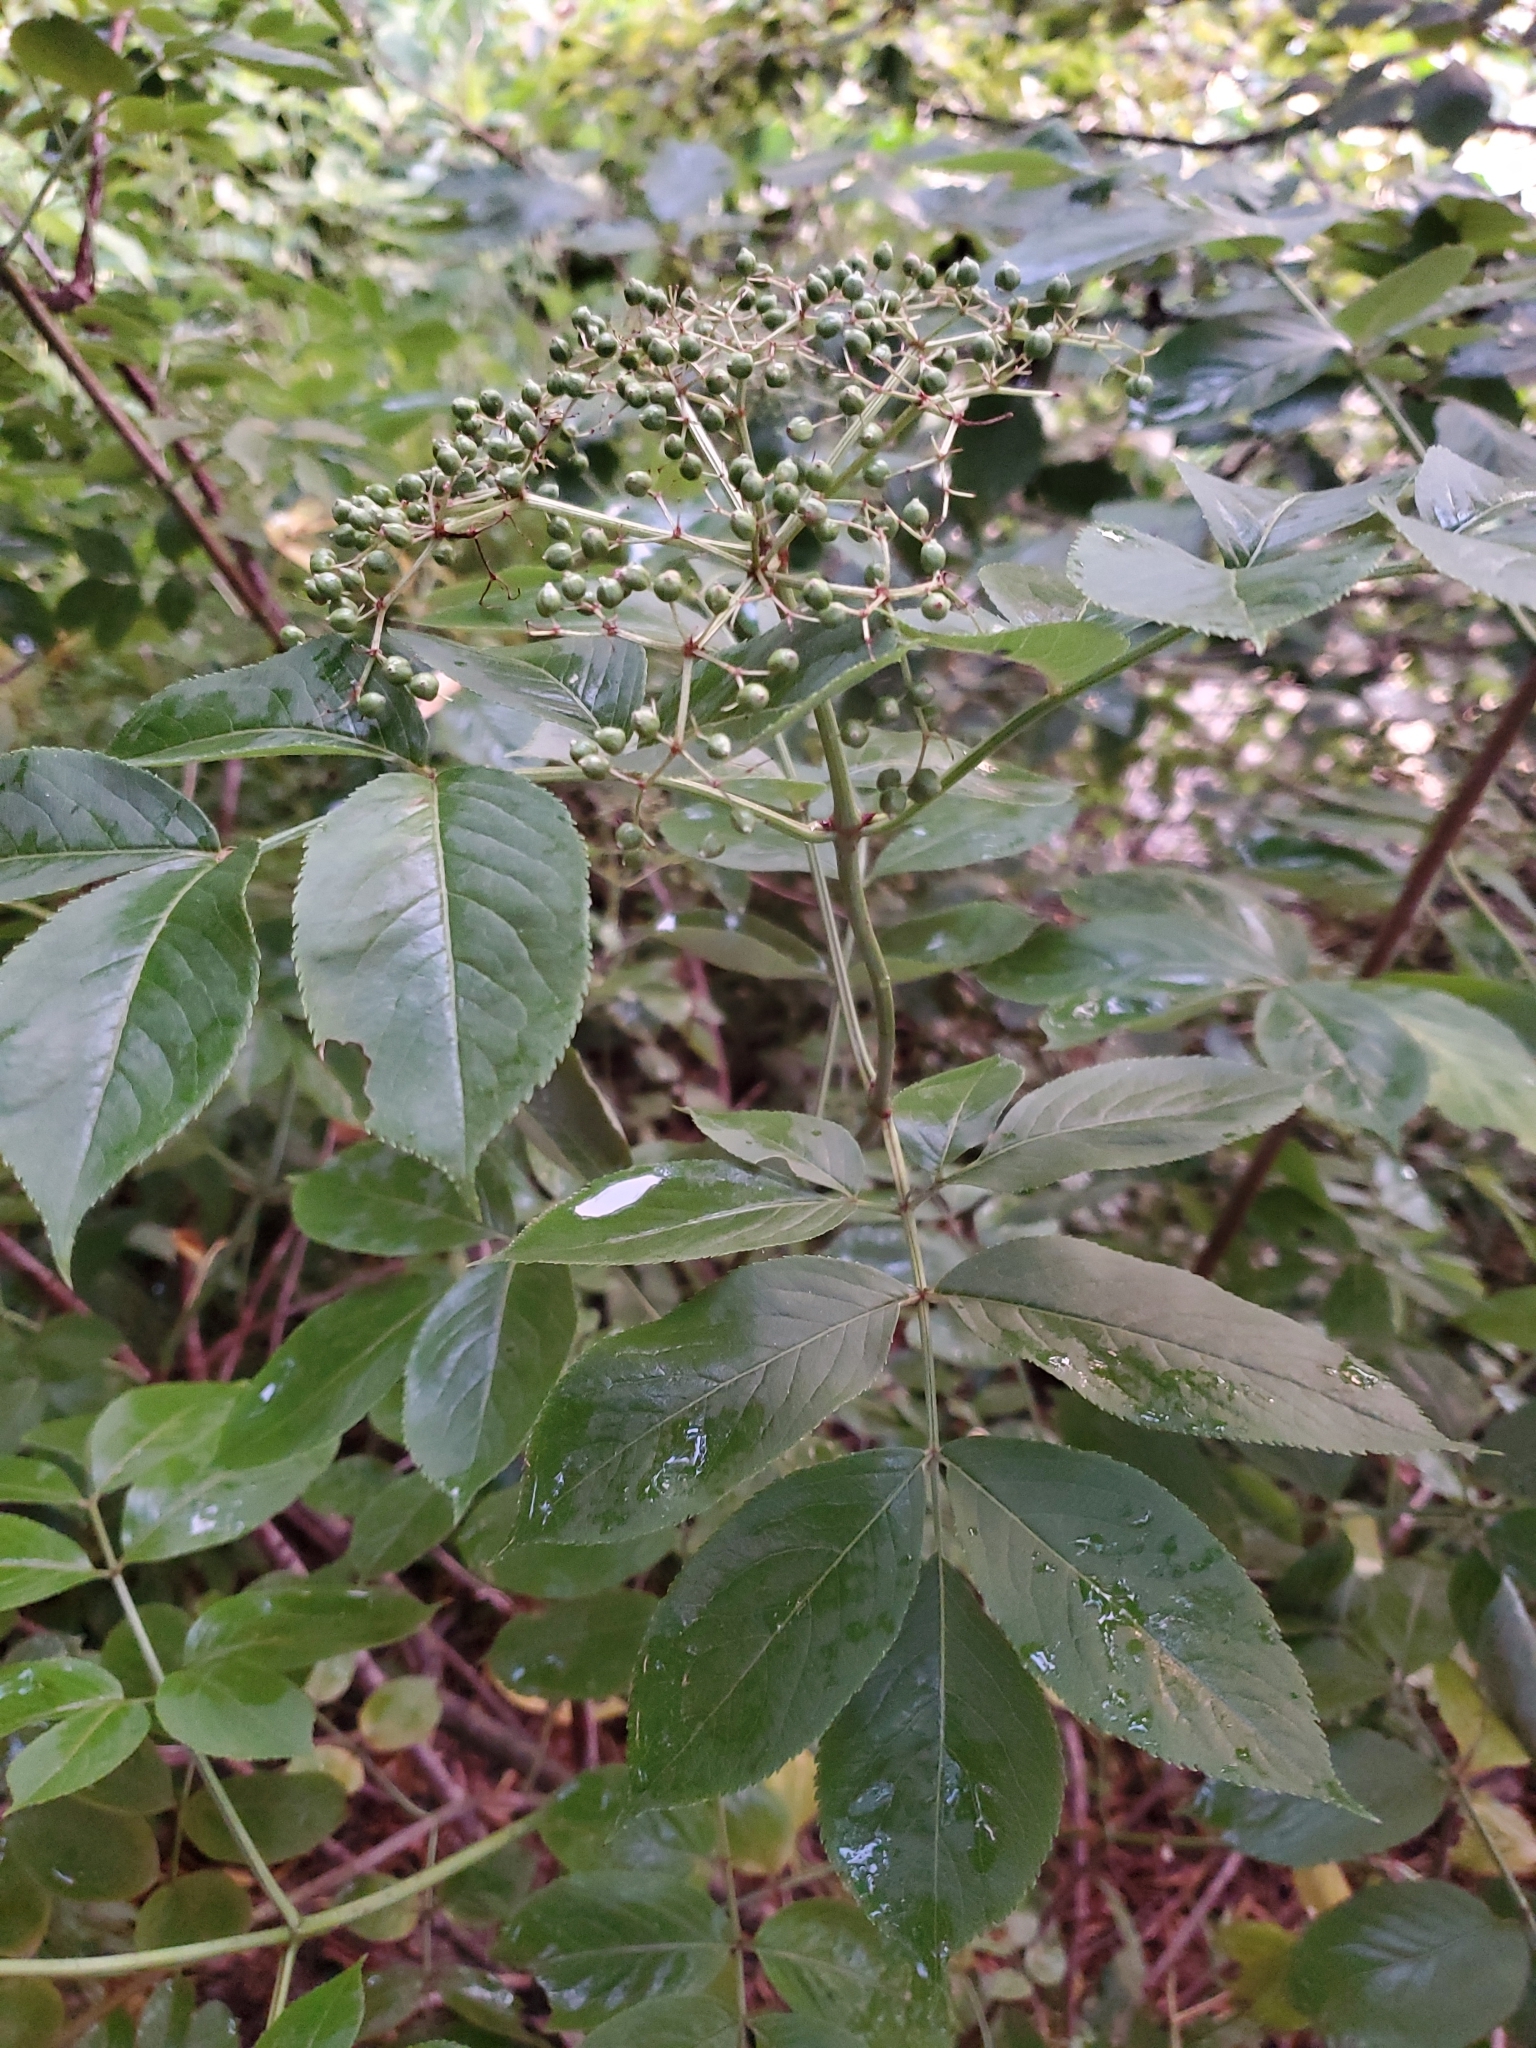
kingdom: Plantae
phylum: Tracheophyta
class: Magnoliopsida
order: Dipsacales
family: Viburnaceae
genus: Sambucus
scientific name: Sambucus canadensis
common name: American elder
